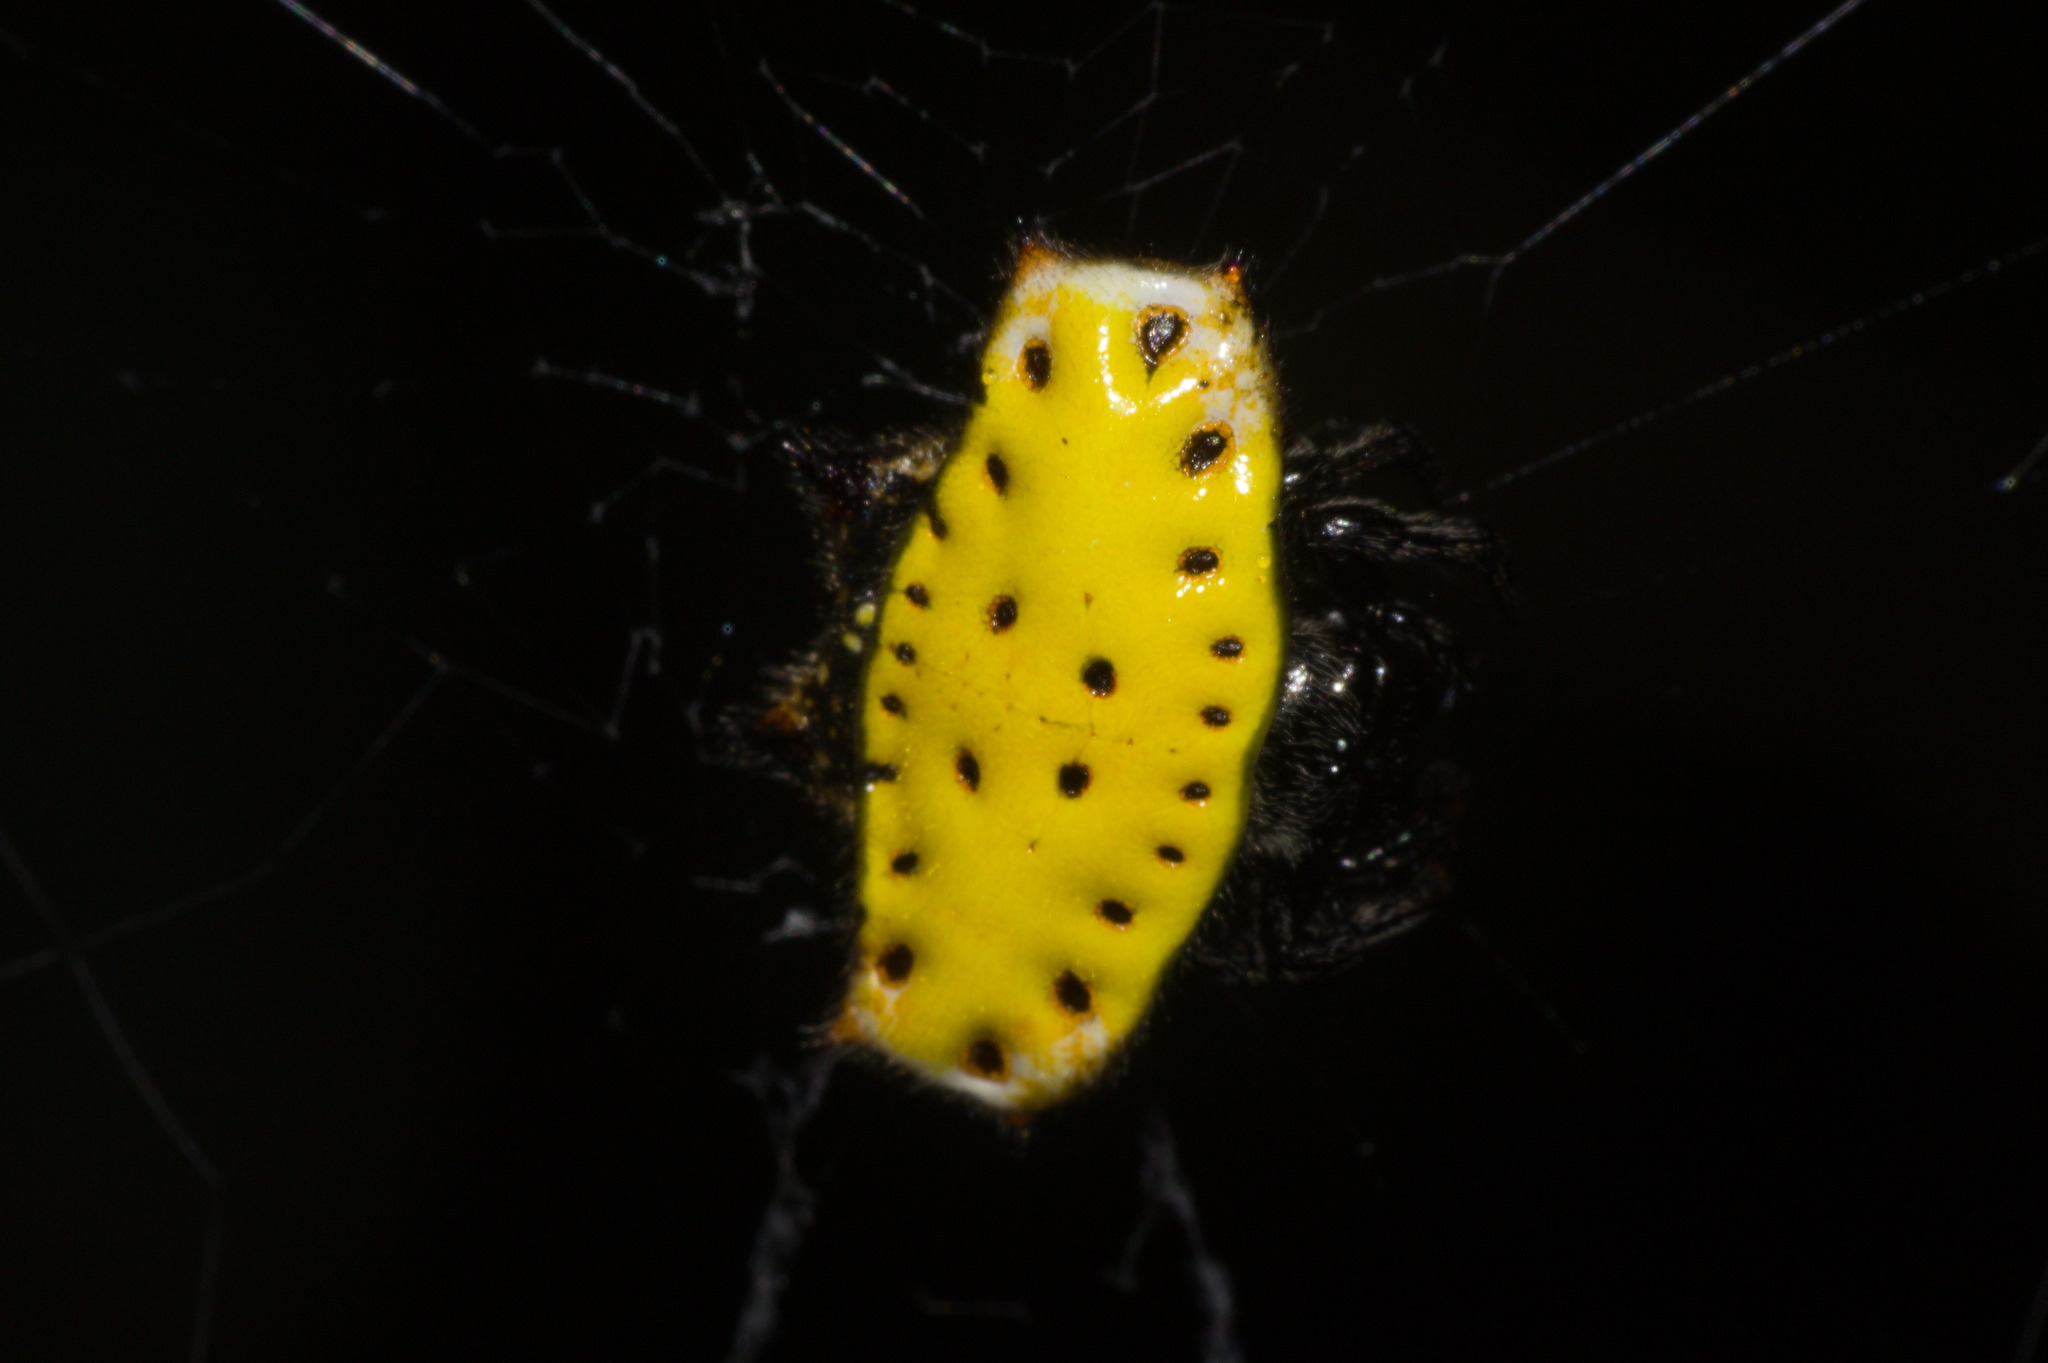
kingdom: Animalia
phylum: Arthropoda
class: Arachnida
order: Araneae
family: Araneidae
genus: Gasteracantha
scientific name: Gasteracantha cancriformis
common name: Orb weavers
